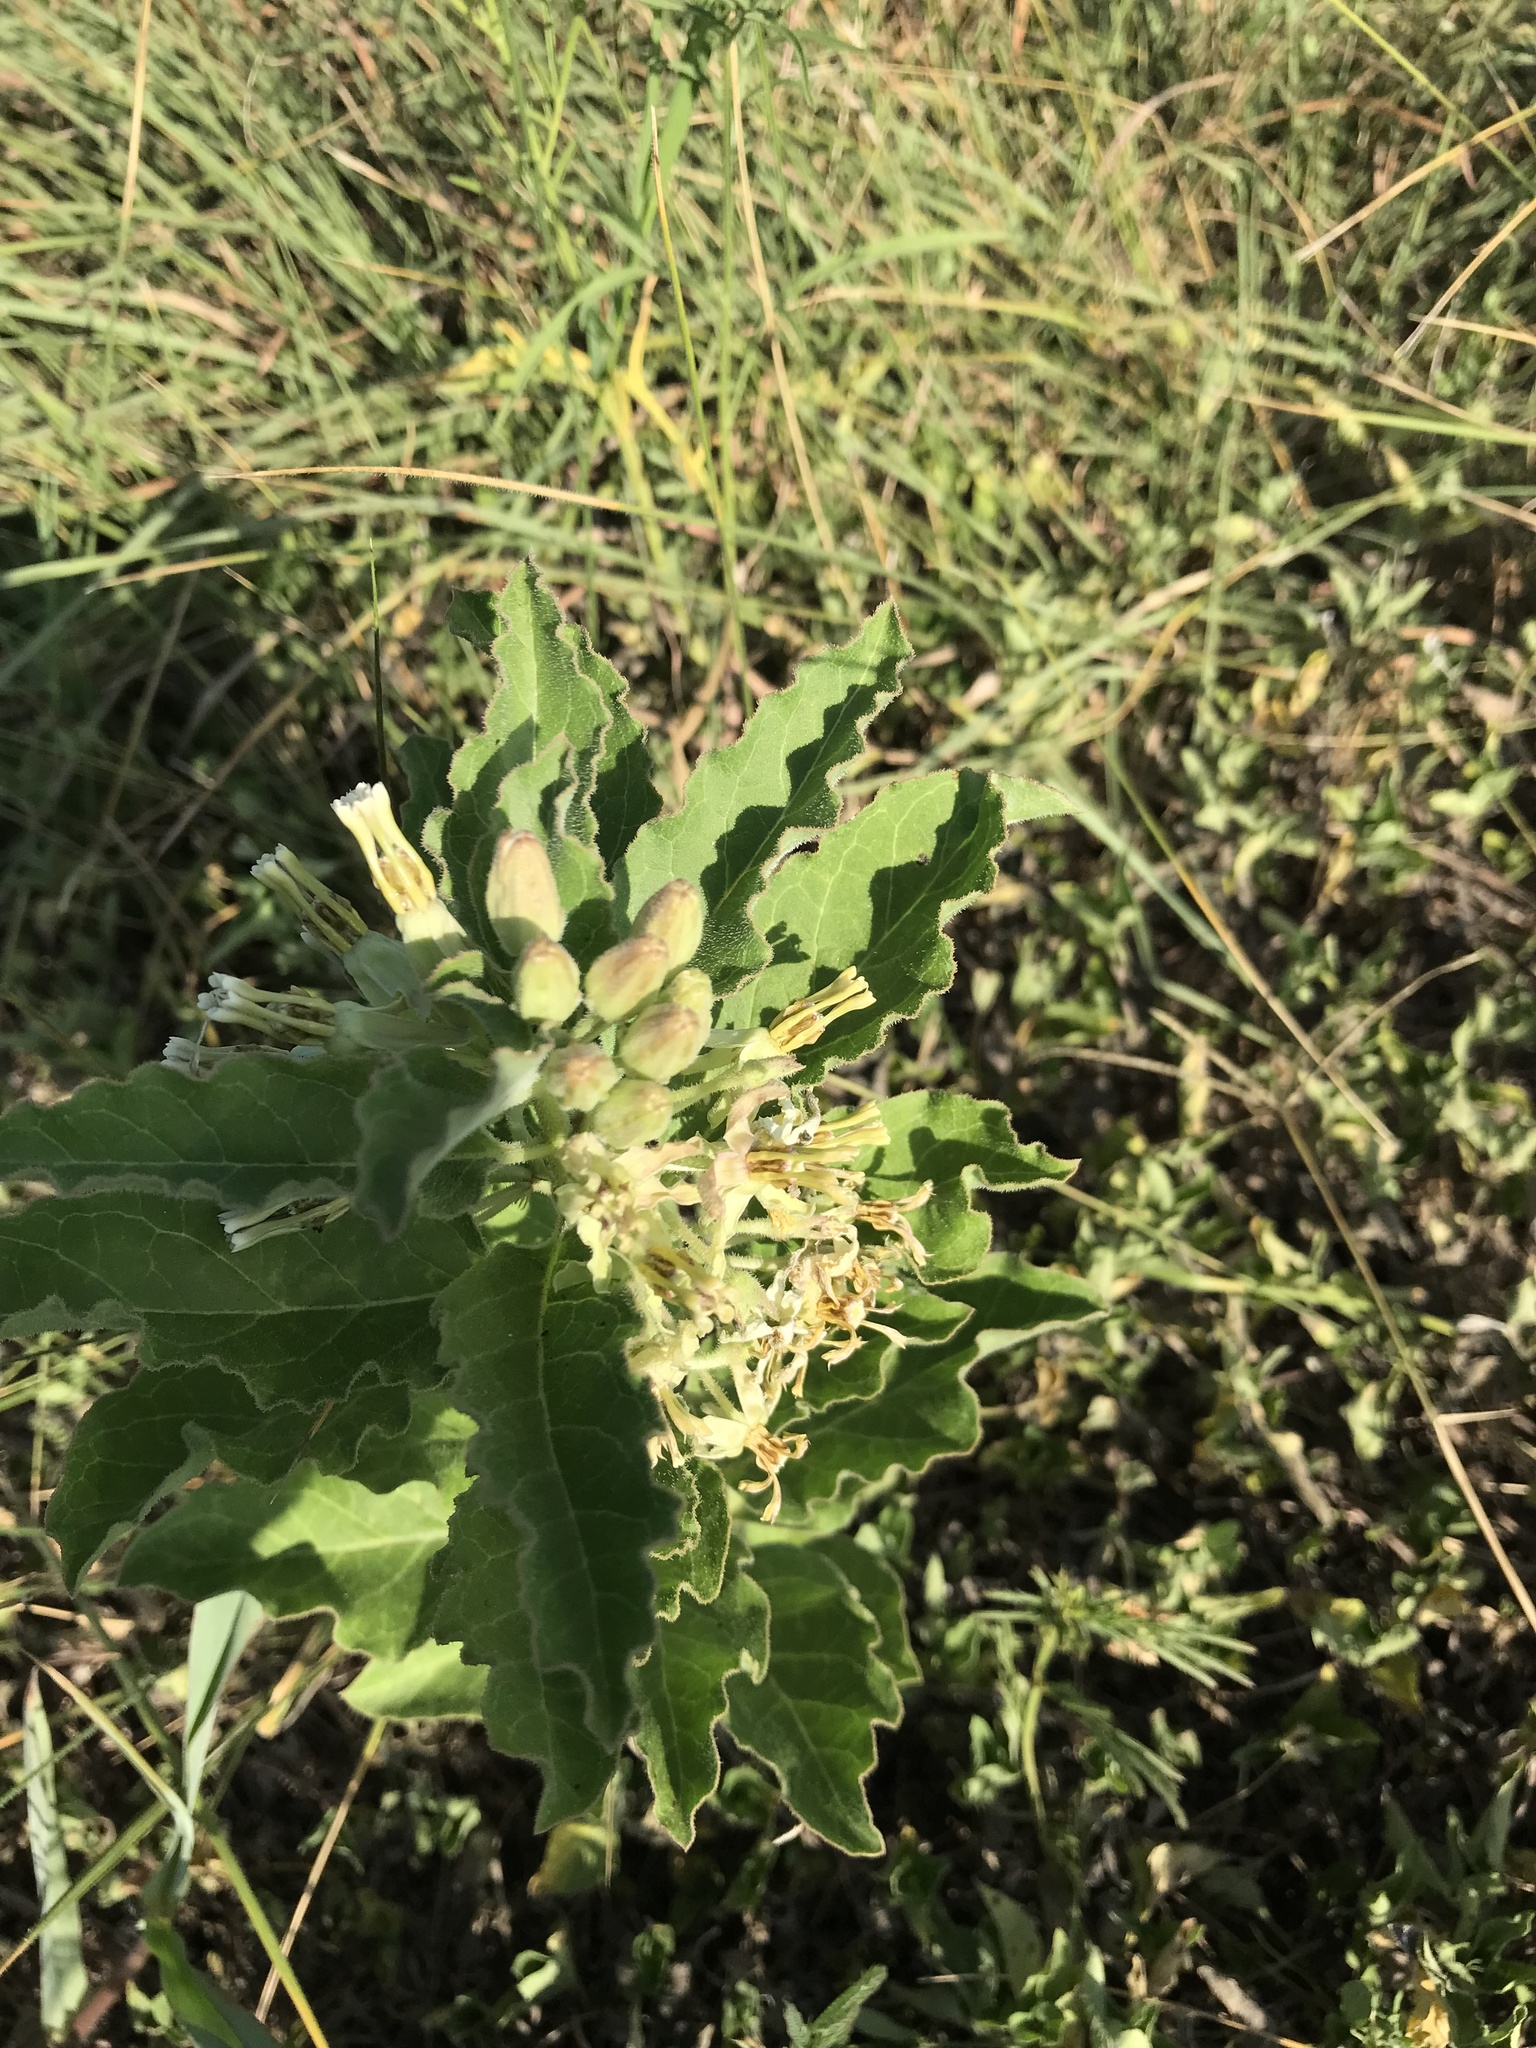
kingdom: Plantae
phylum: Tracheophyta
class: Magnoliopsida
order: Gentianales
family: Apocynaceae
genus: Asclepias
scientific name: Asclepias oenotheroides
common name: Zizotes milkweed
